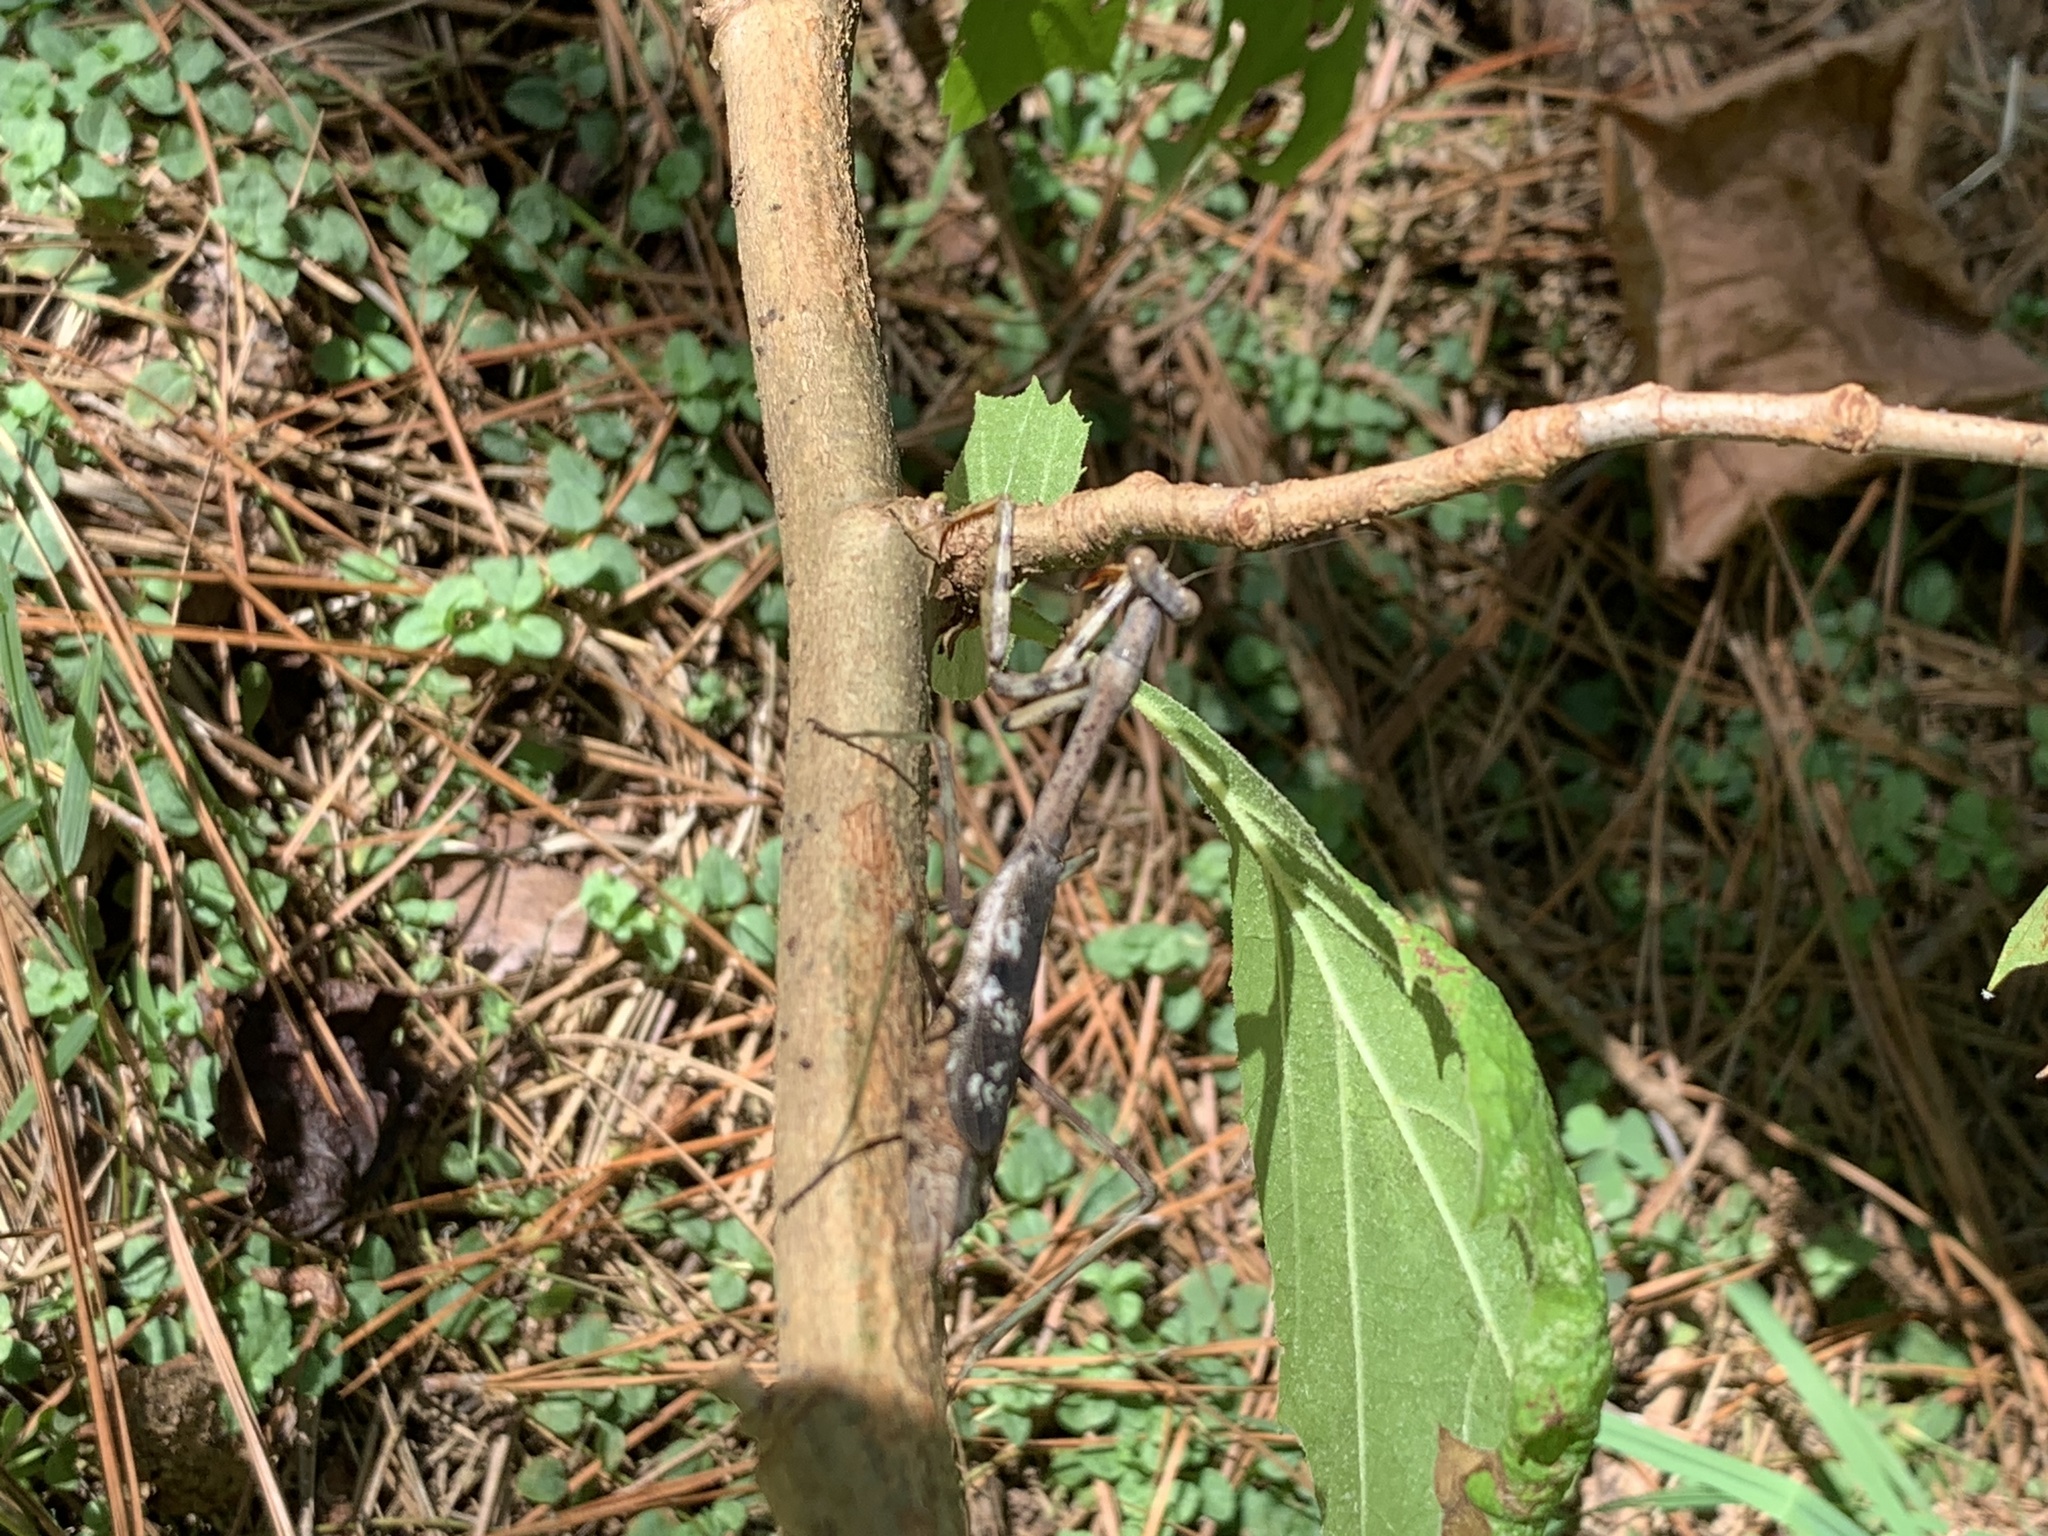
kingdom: Animalia
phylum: Arthropoda
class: Insecta
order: Mantodea
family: Mantidae
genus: Stagmomantis
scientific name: Stagmomantis carolina
